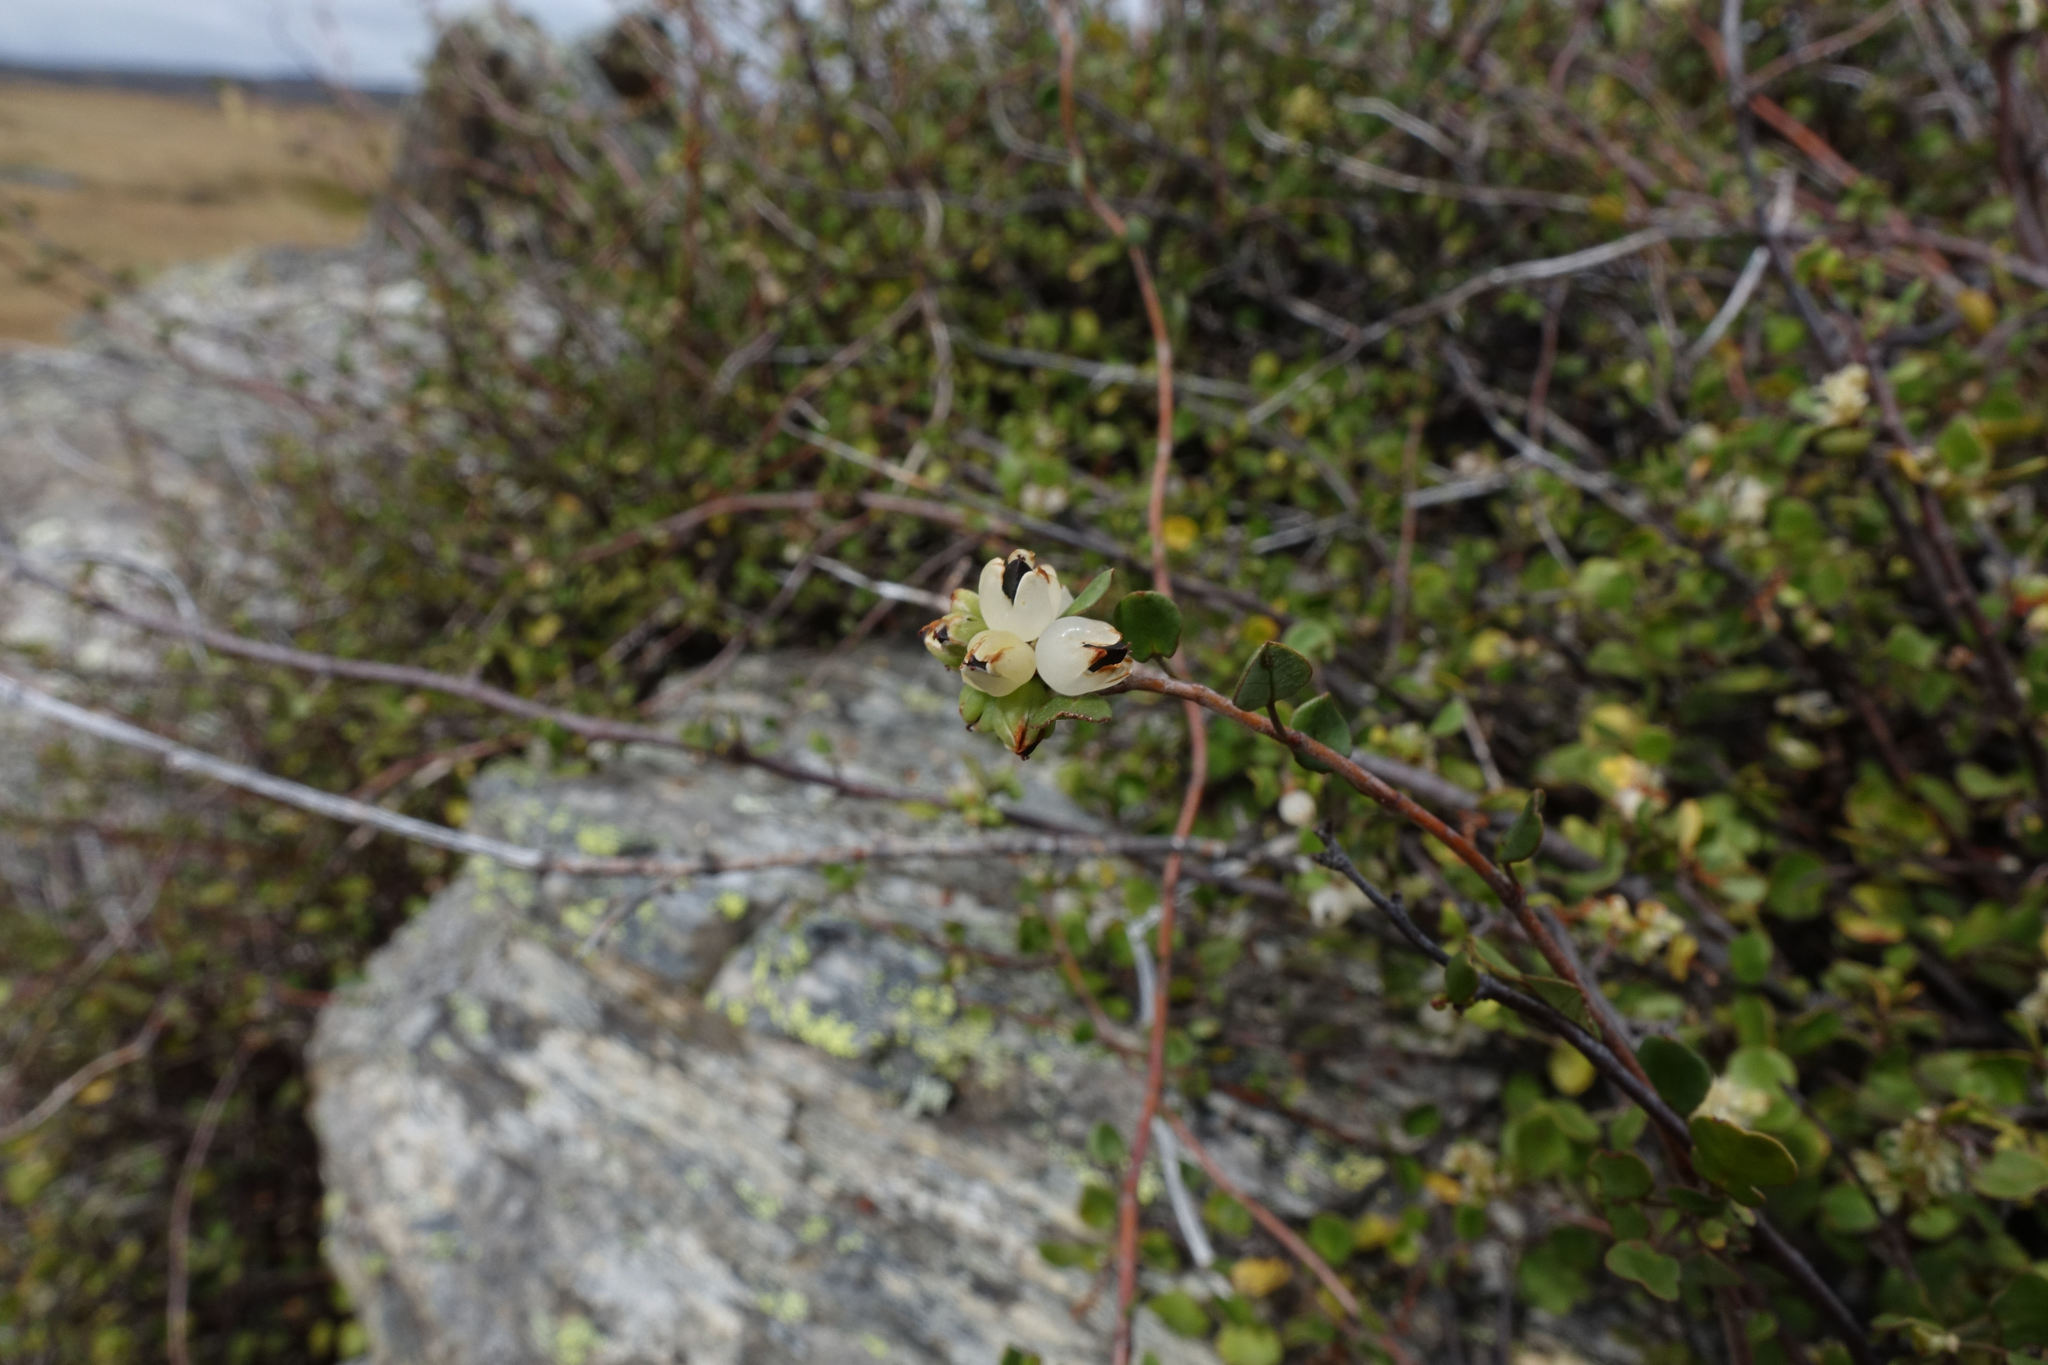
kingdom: Plantae
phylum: Tracheophyta
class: Magnoliopsida
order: Caryophyllales
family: Polygonaceae
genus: Muehlenbeckia
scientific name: Muehlenbeckia complexa
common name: Wireplant
